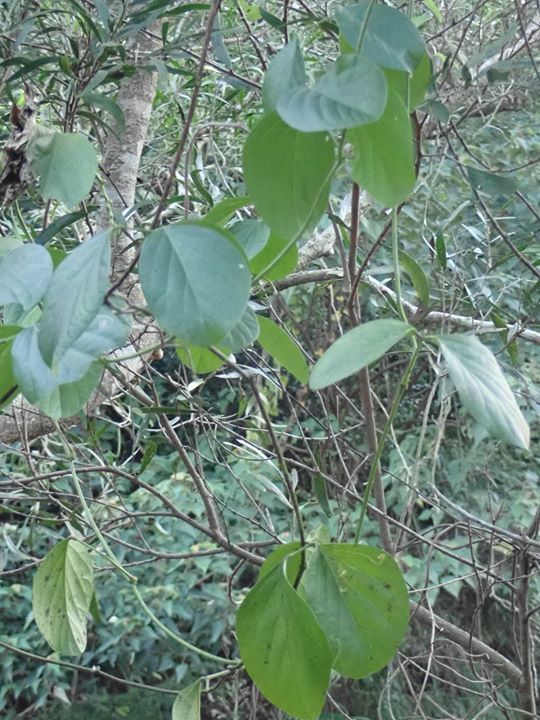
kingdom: Plantae
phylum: Tracheophyta
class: Magnoliopsida
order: Fabales
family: Fabaceae
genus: Canavalia
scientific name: Canavalia lineata
